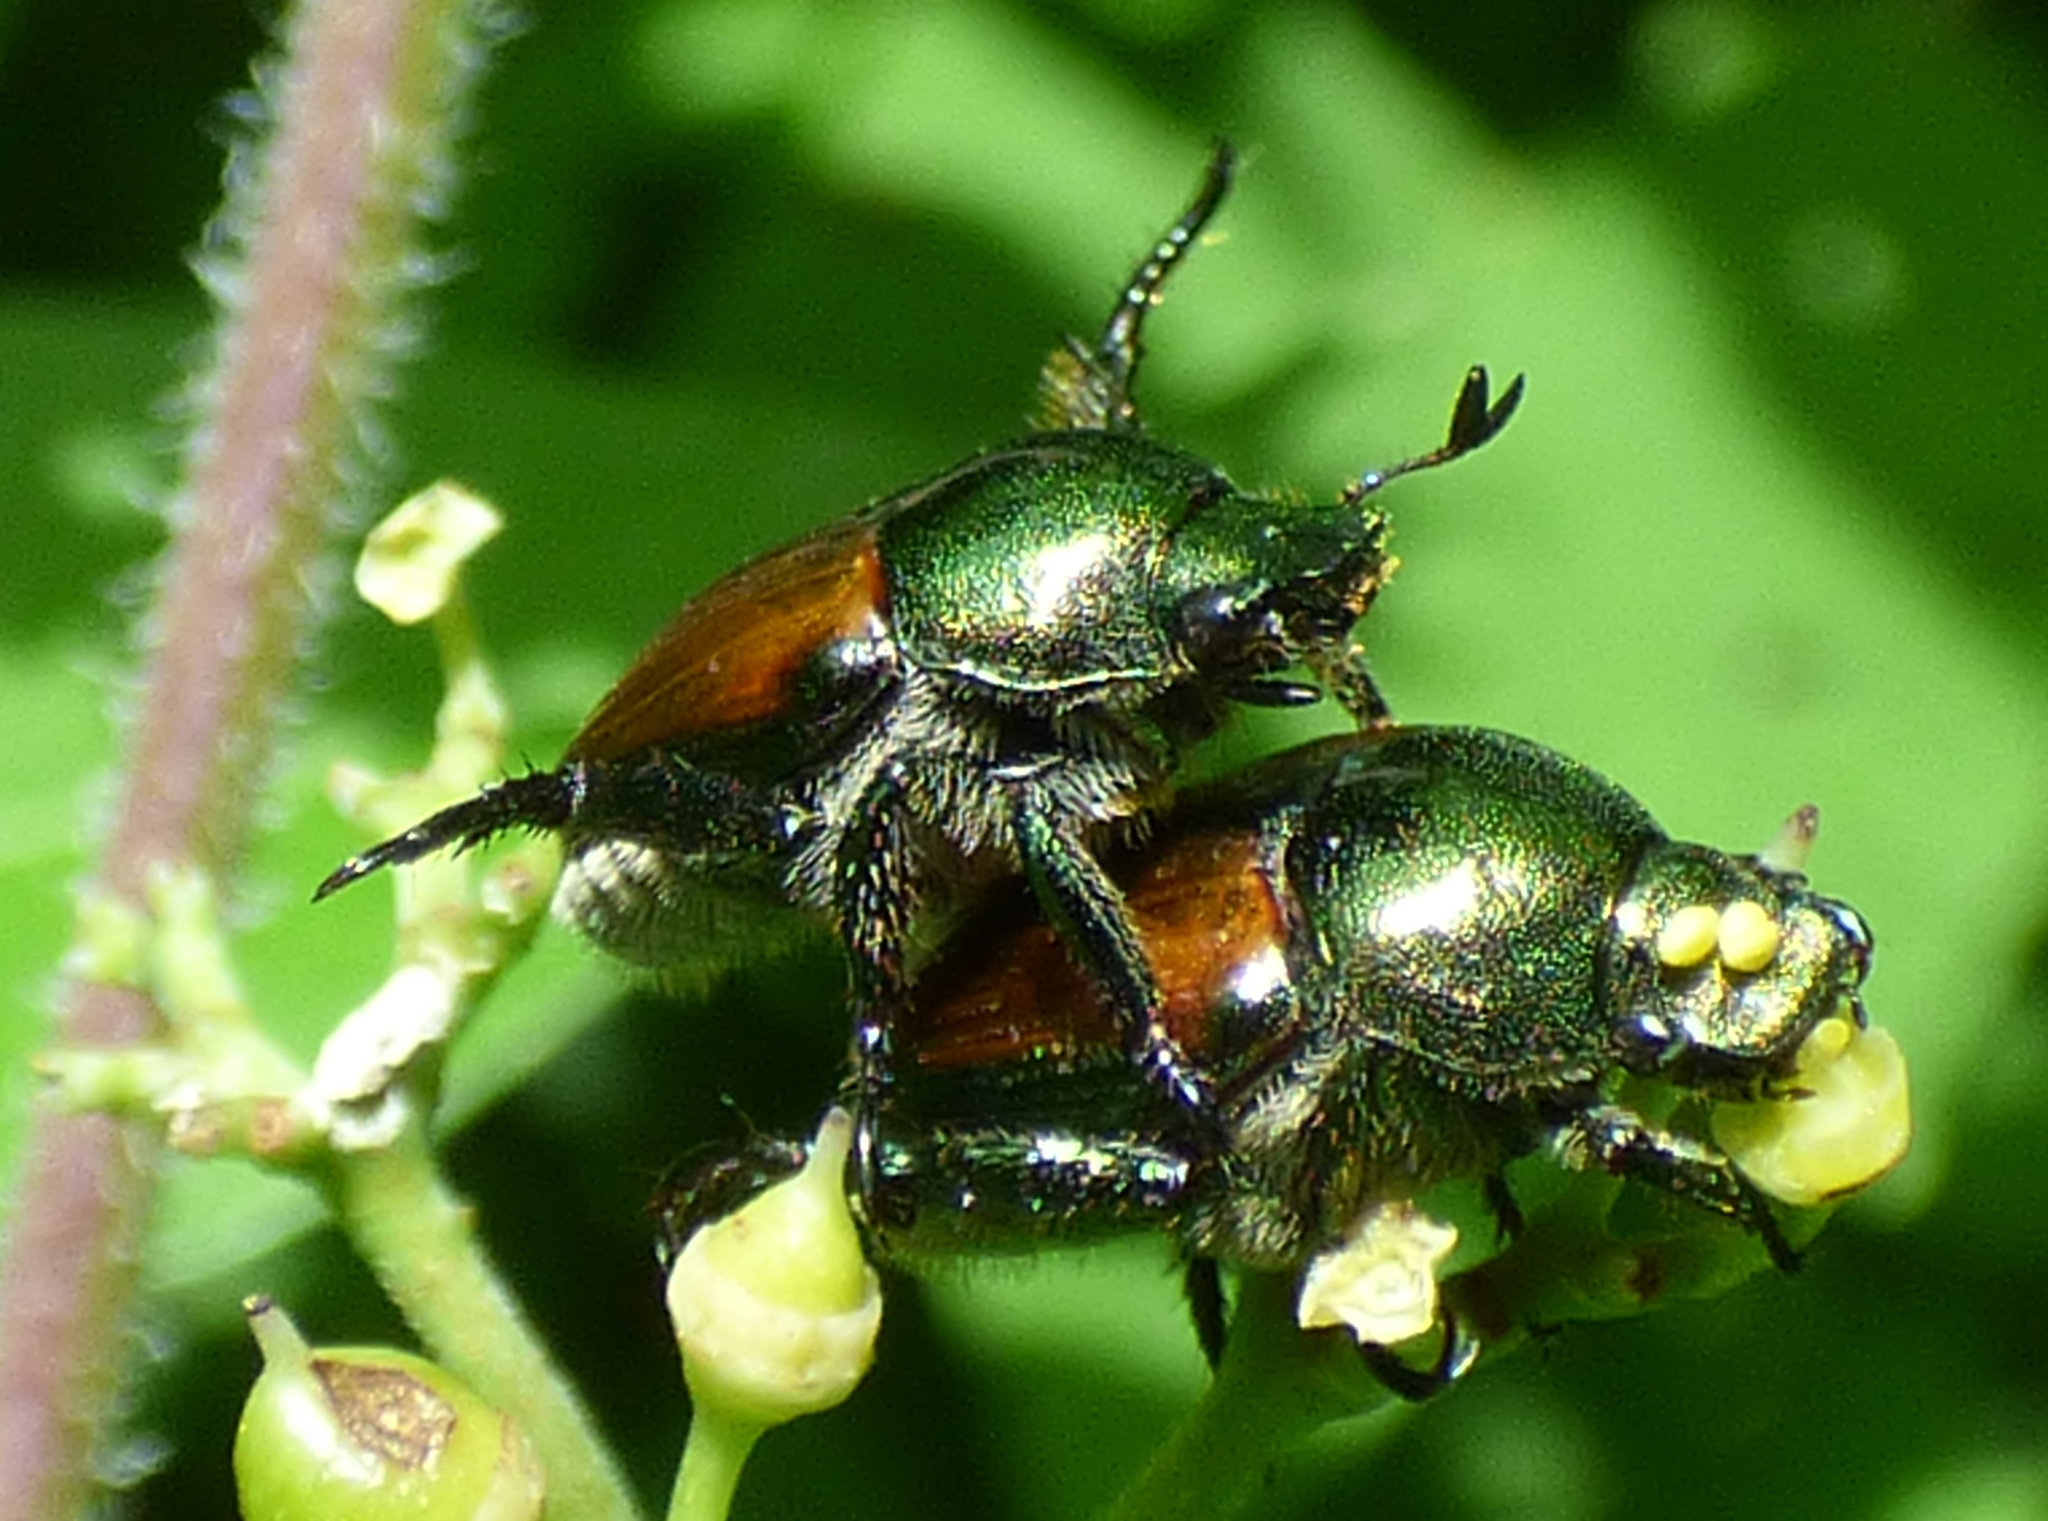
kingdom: Animalia
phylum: Arthropoda
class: Insecta
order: Coleoptera
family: Scarabaeidae
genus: Popillia
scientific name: Popillia japonica
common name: Japanese beetle
